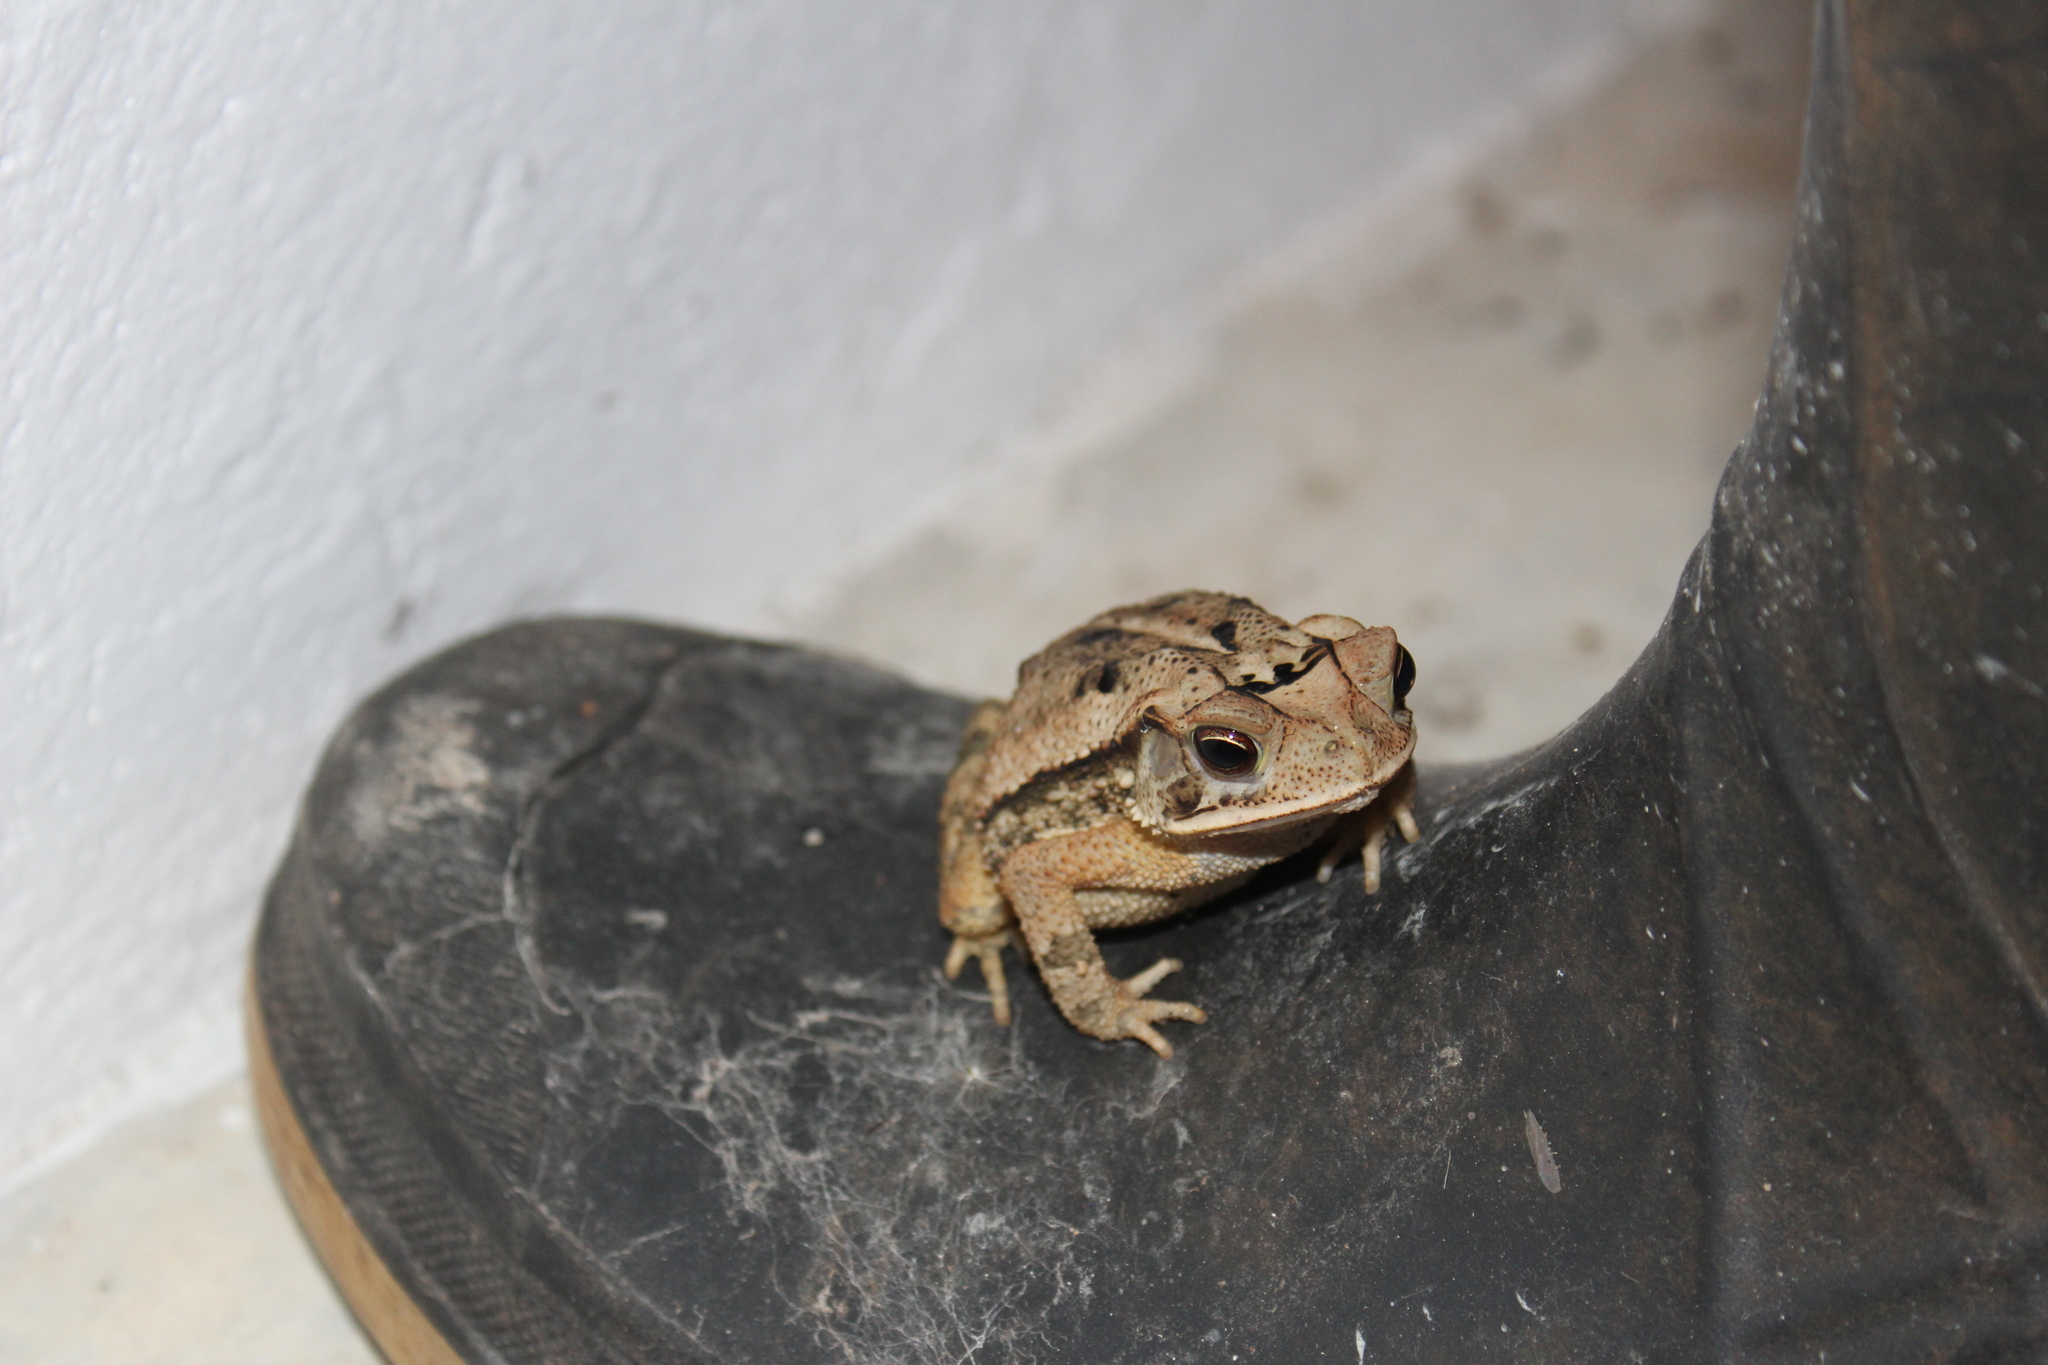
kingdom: Animalia
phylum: Chordata
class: Amphibia
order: Anura
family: Bufonidae
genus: Incilius
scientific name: Incilius valliceps
